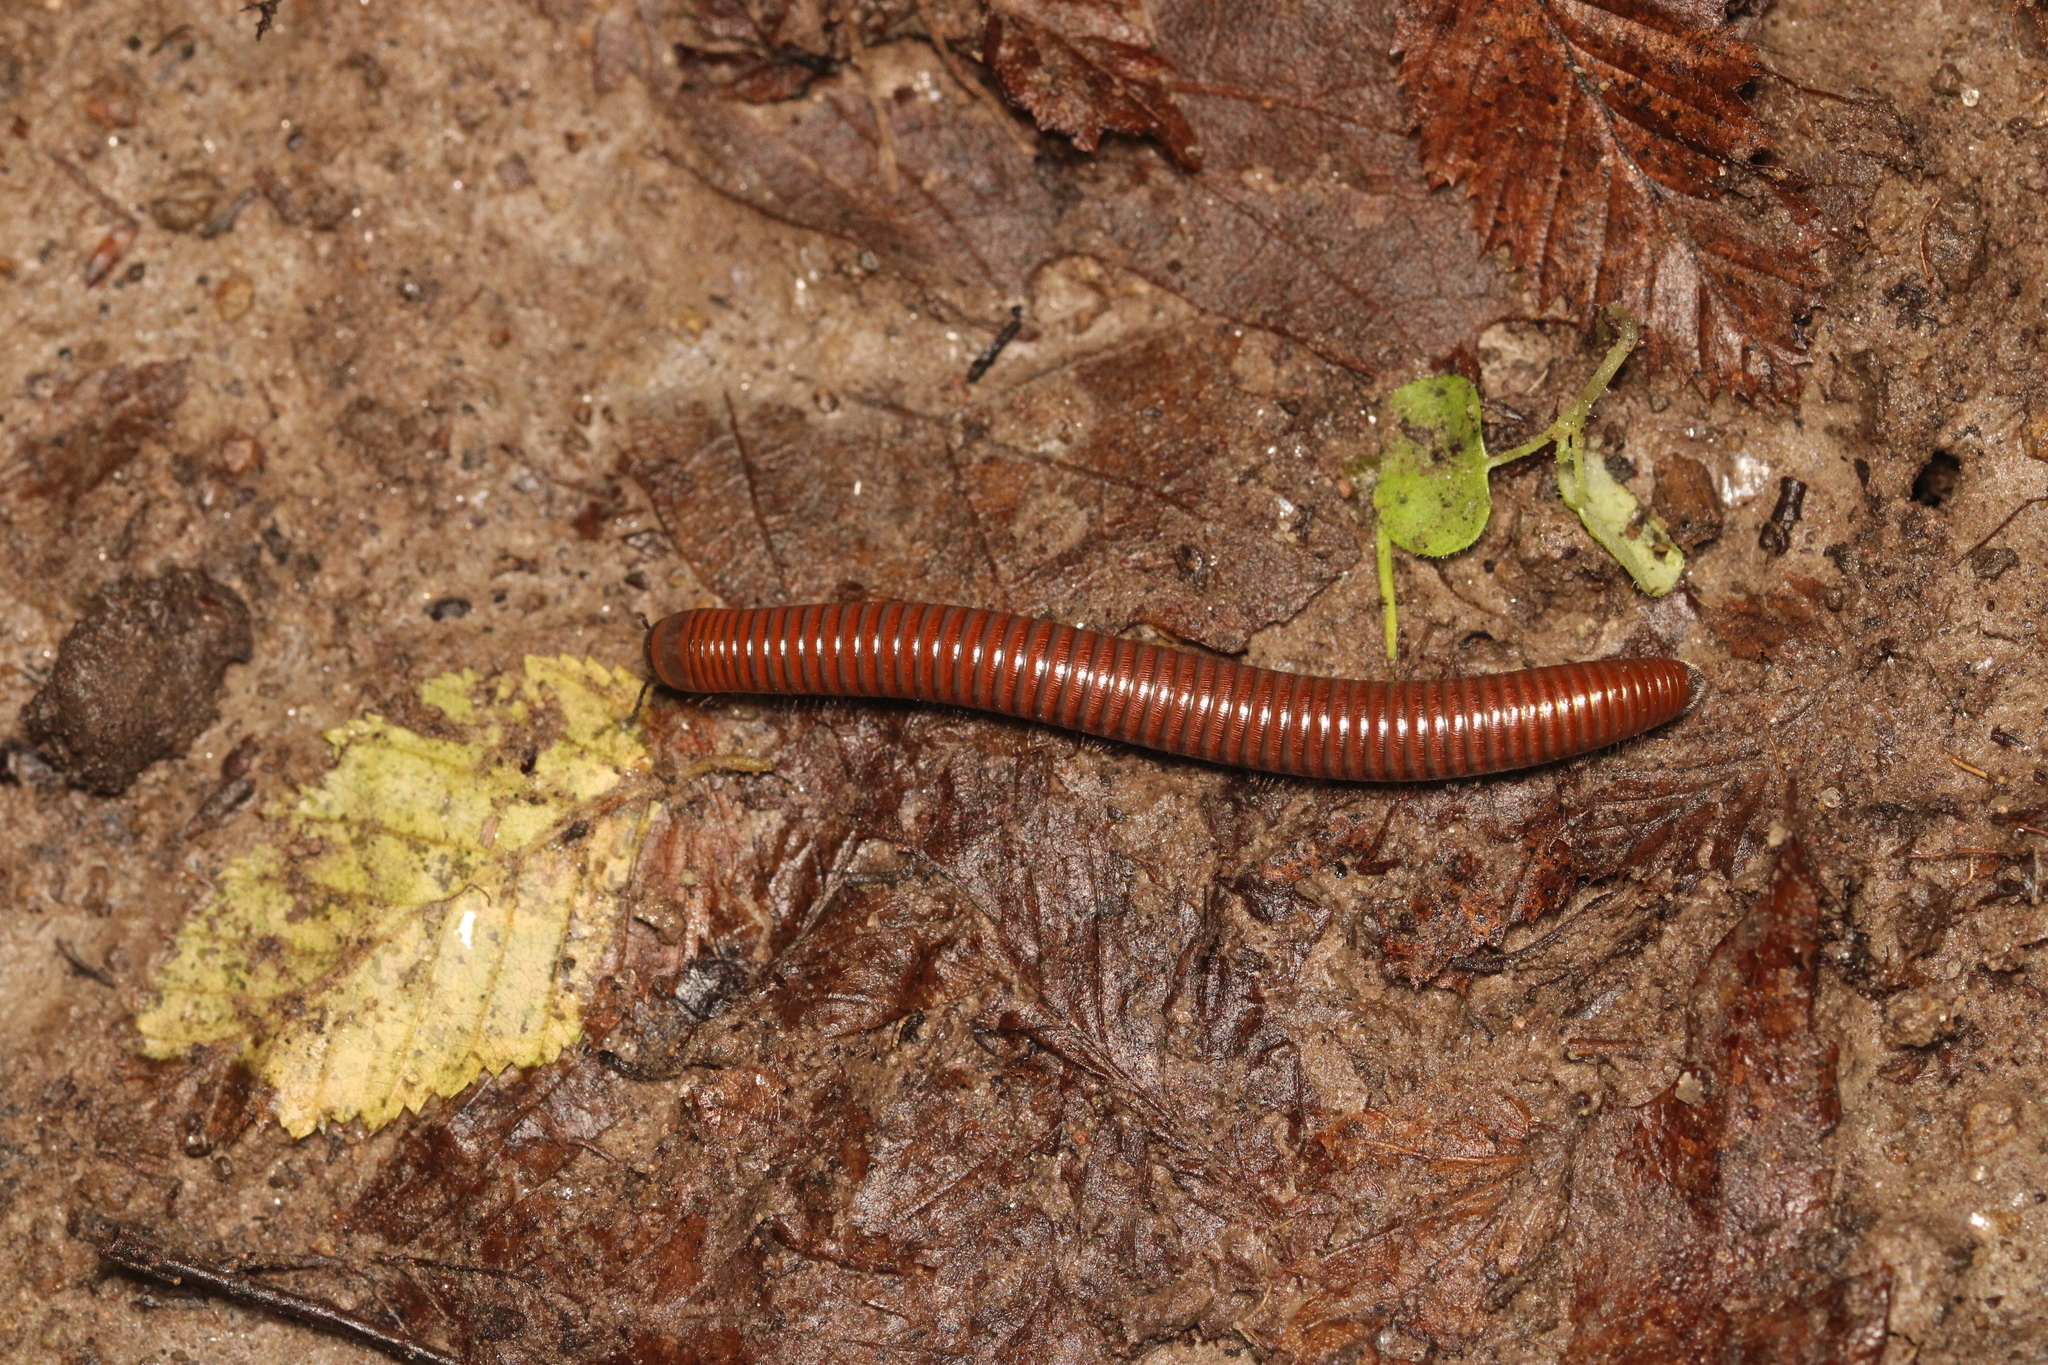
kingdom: Animalia
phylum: Arthropoda
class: Diplopoda
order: Julida
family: Julidae
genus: Pachyiulus
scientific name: Pachyiulus hungaricus
